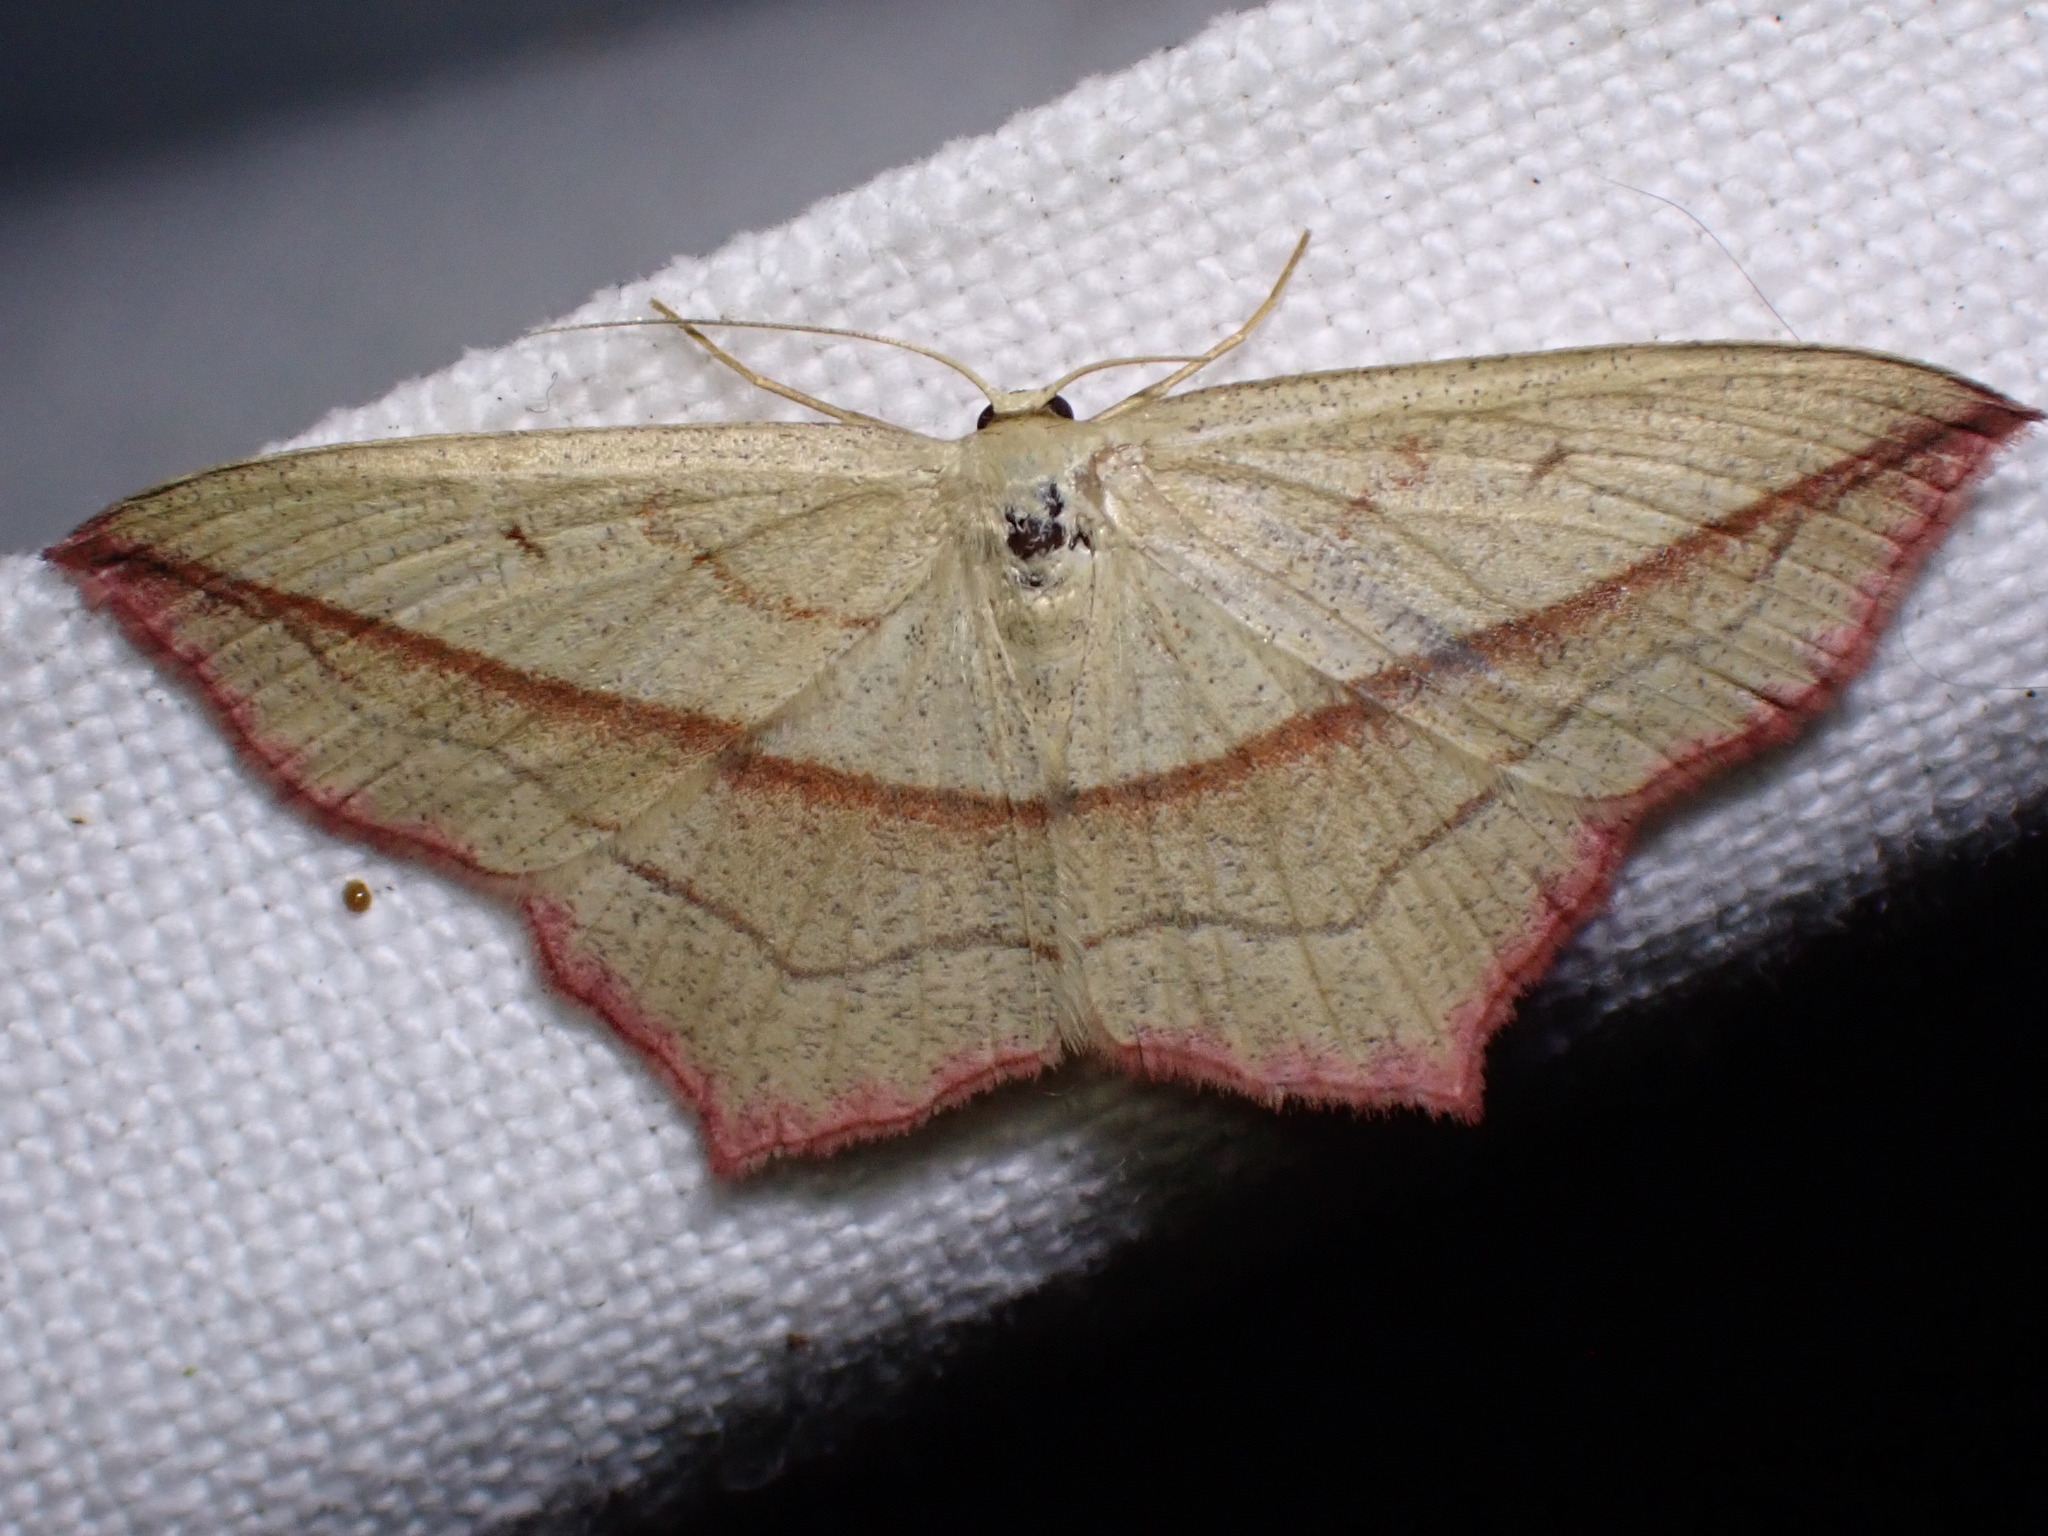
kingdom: Animalia
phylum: Arthropoda
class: Insecta
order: Lepidoptera
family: Geometridae
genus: Timandra
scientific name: Timandra comae
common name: Blood-vein
